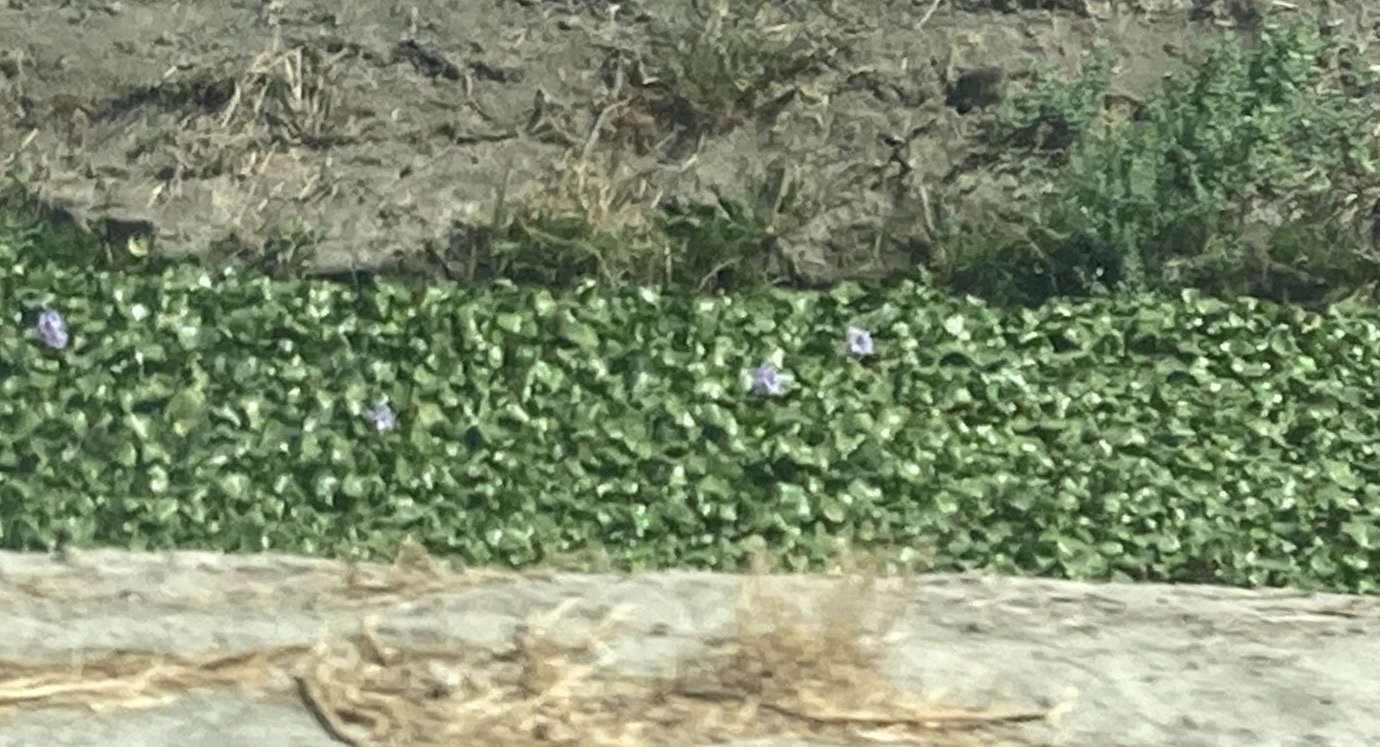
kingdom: Plantae
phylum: Tracheophyta
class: Liliopsida
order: Commelinales
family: Pontederiaceae
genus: Pontederia
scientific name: Pontederia crassipes
